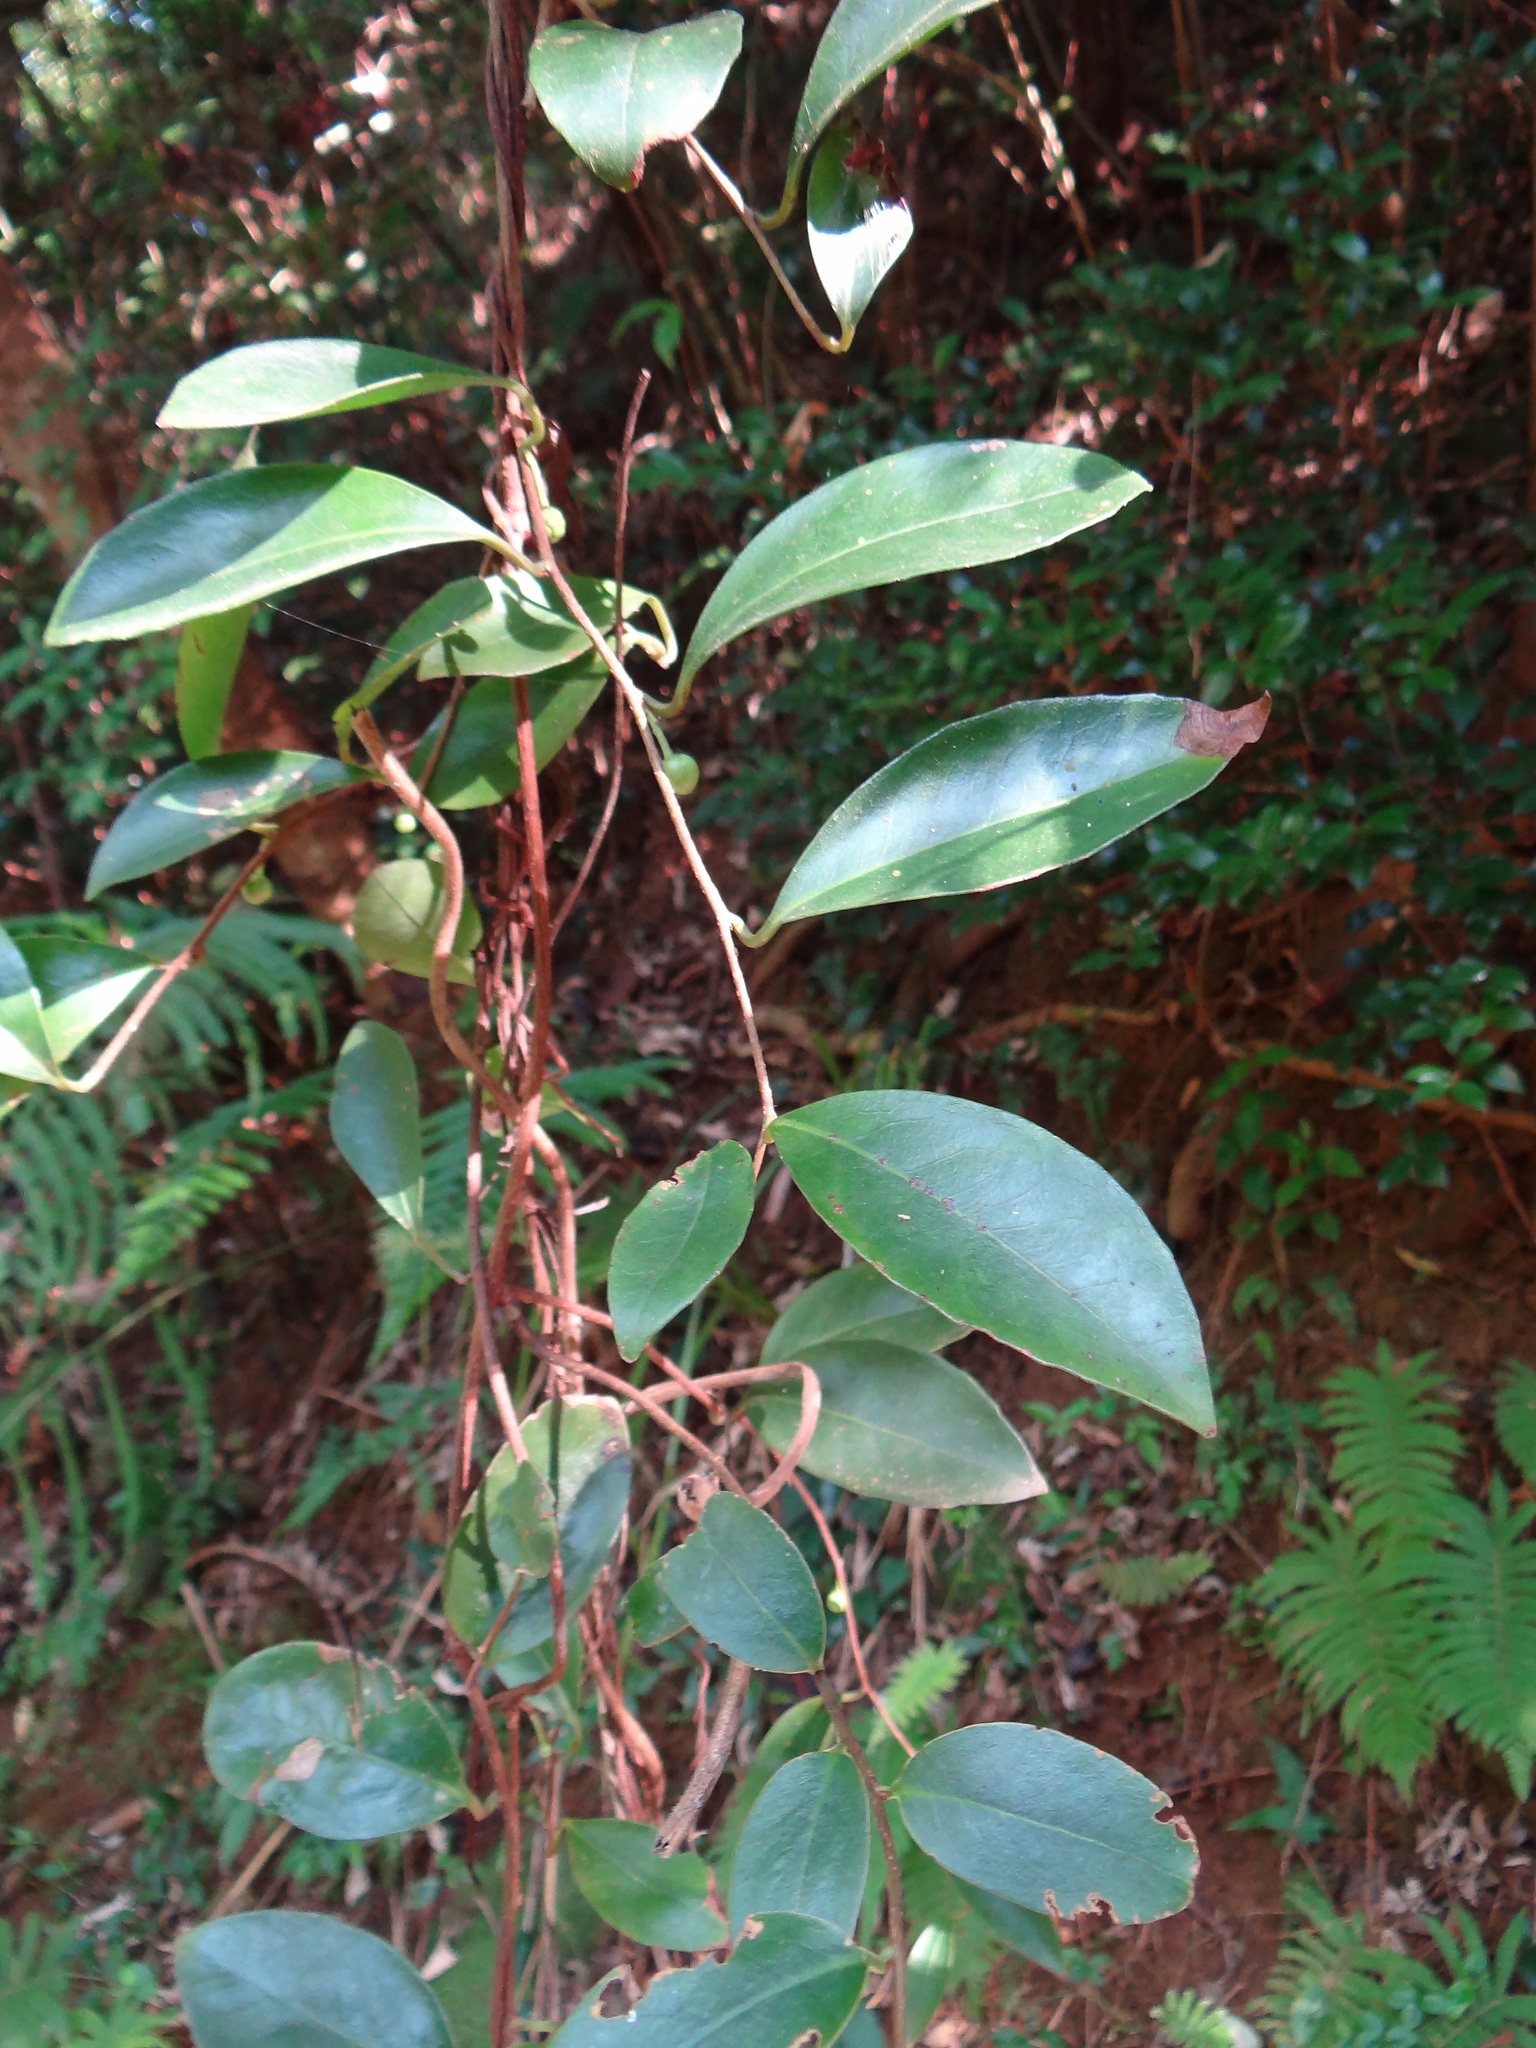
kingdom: Plantae
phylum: Tracheophyta
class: Magnoliopsida
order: Austrobaileyales
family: Schisandraceae
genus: Kadsura
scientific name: Kadsura japonica
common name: Japanese kadsura
